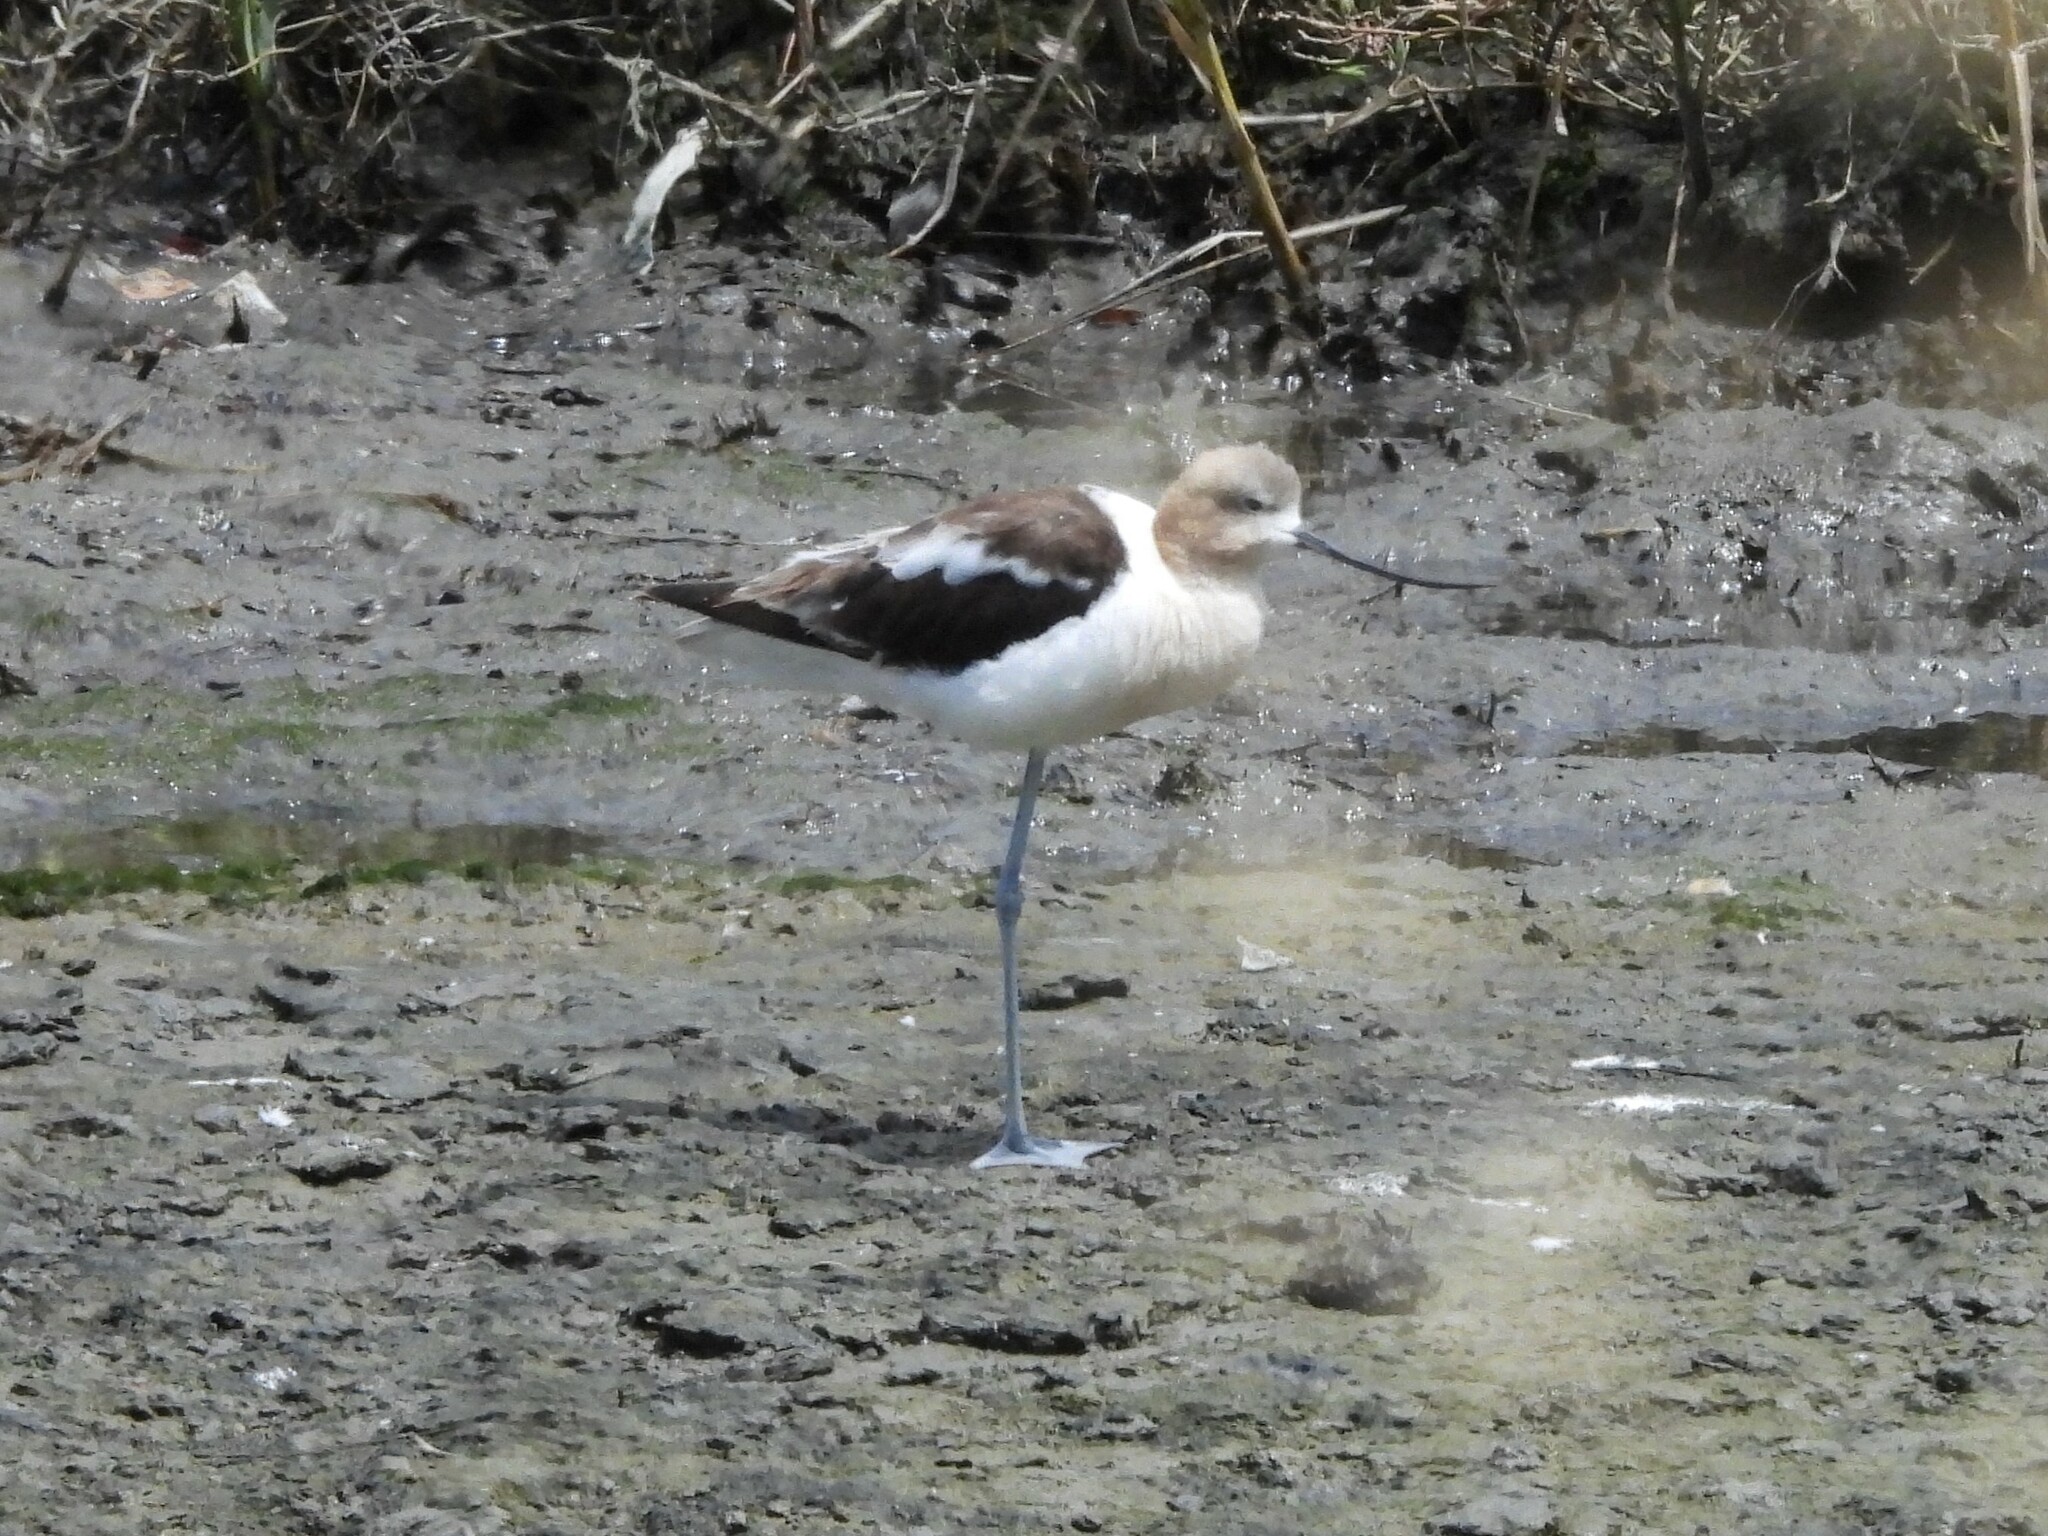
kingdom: Animalia
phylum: Chordata
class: Aves
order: Charadriiformes
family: Recurvirostridae
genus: Recurvirostra
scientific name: Recurvirostra americana
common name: American avocet
